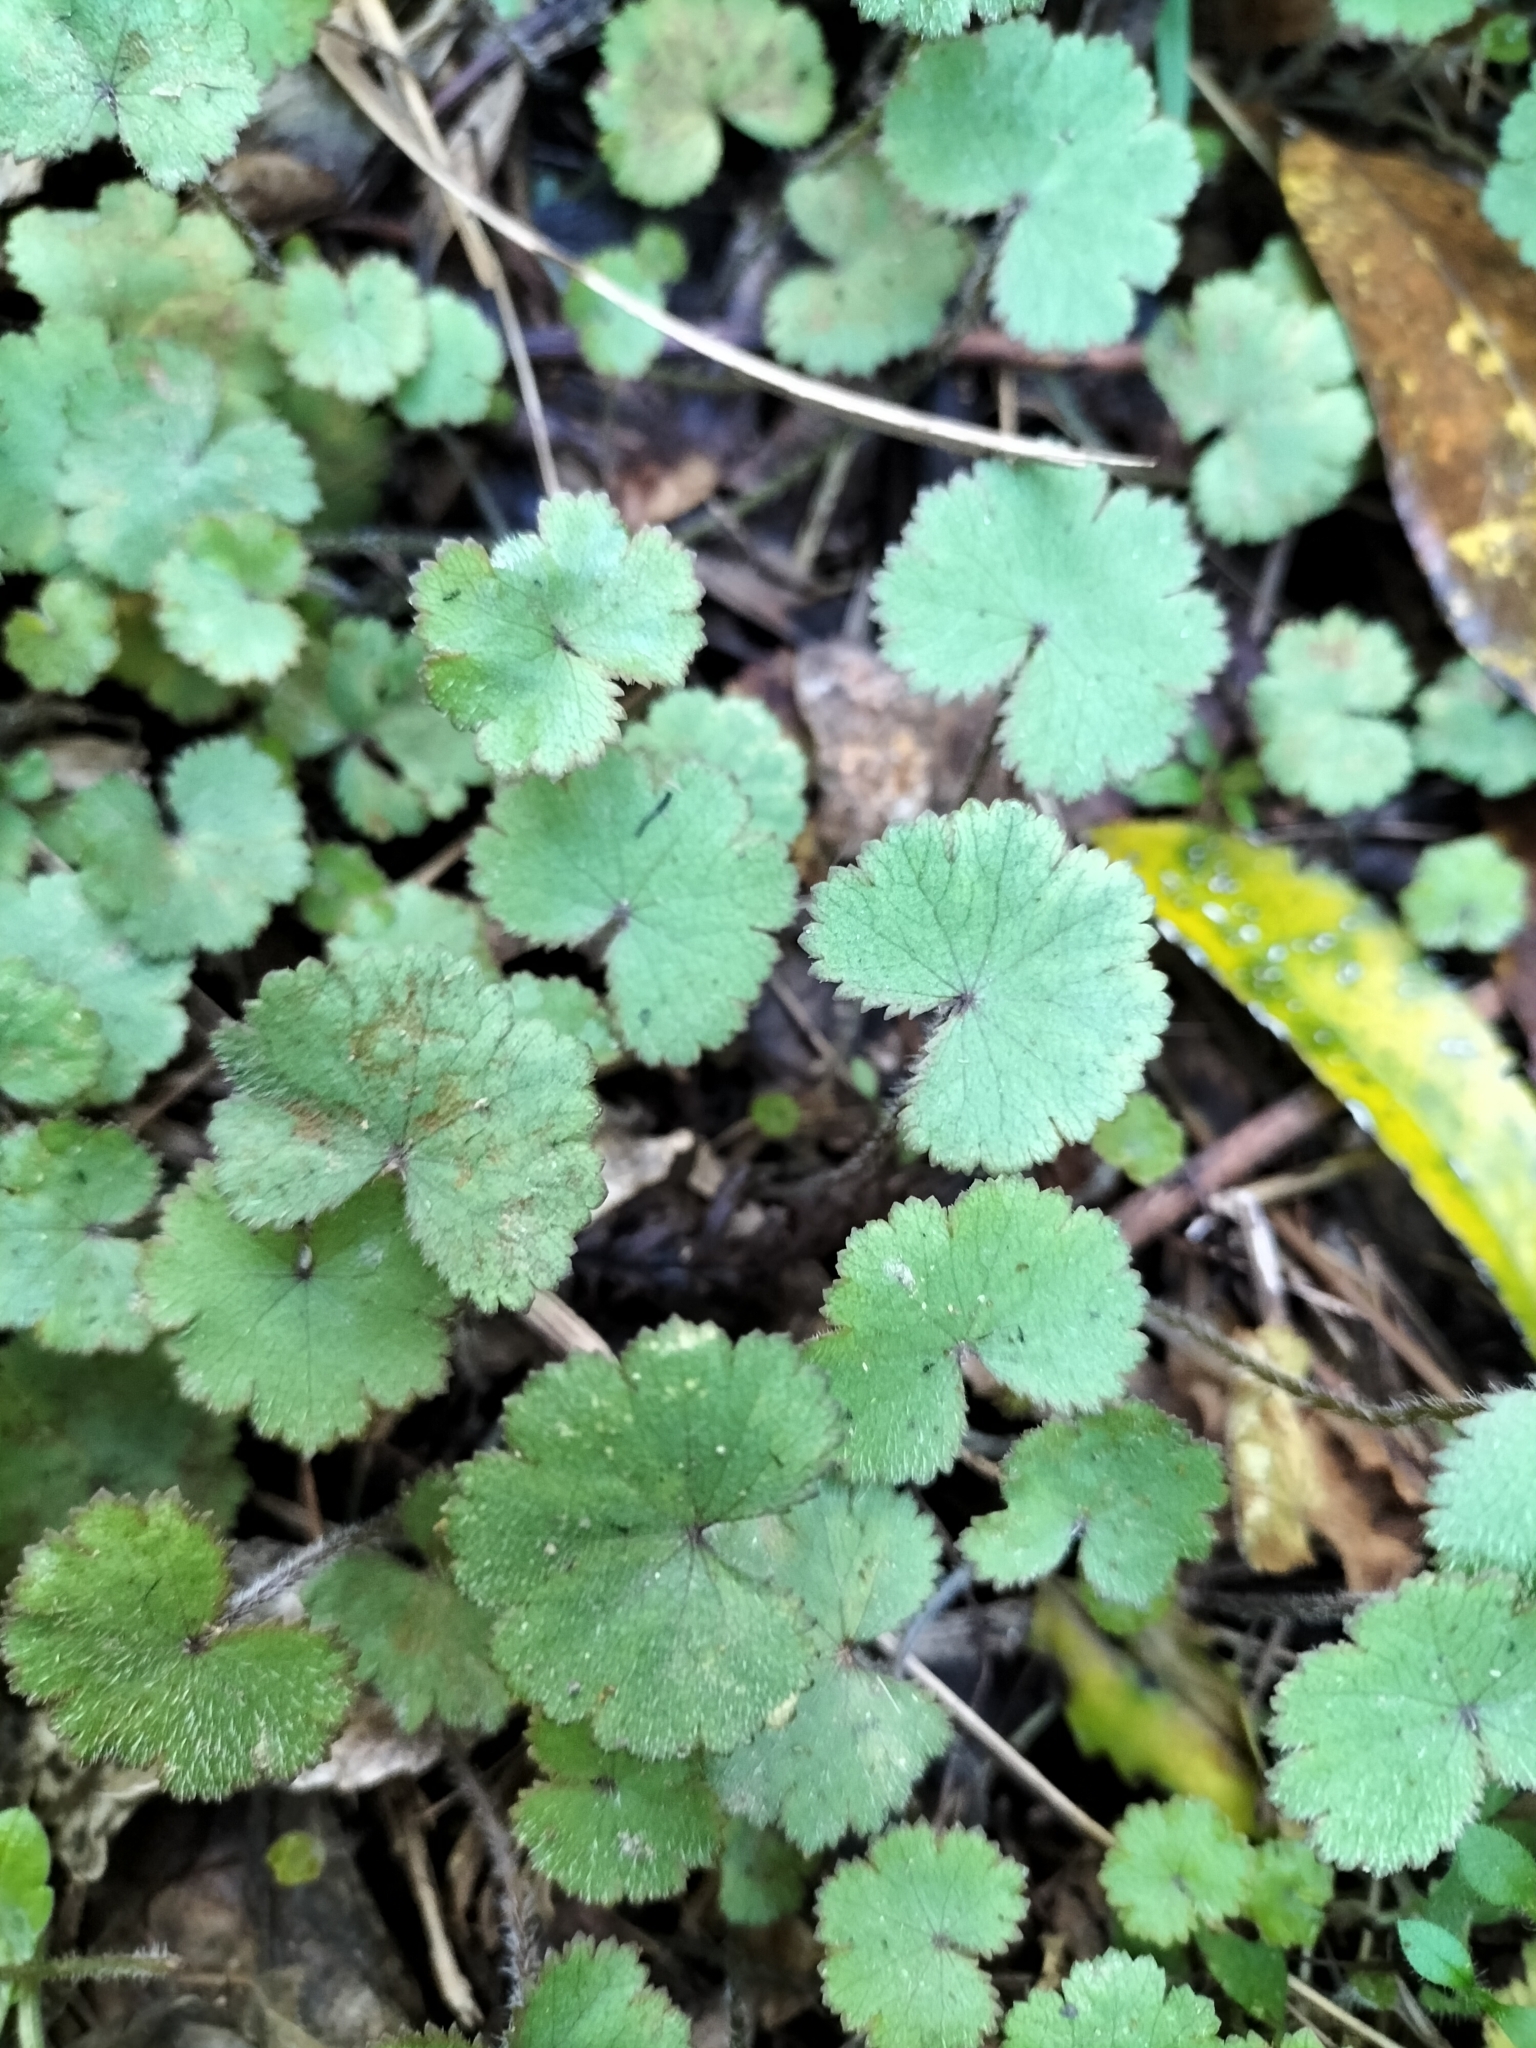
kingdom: Plantae
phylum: Tracheophyta
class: Magnoliopsida
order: Apiales
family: Araliaceae
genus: Hydrocotyle
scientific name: Hydrocotyle moschata
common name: Hairy pennywort
